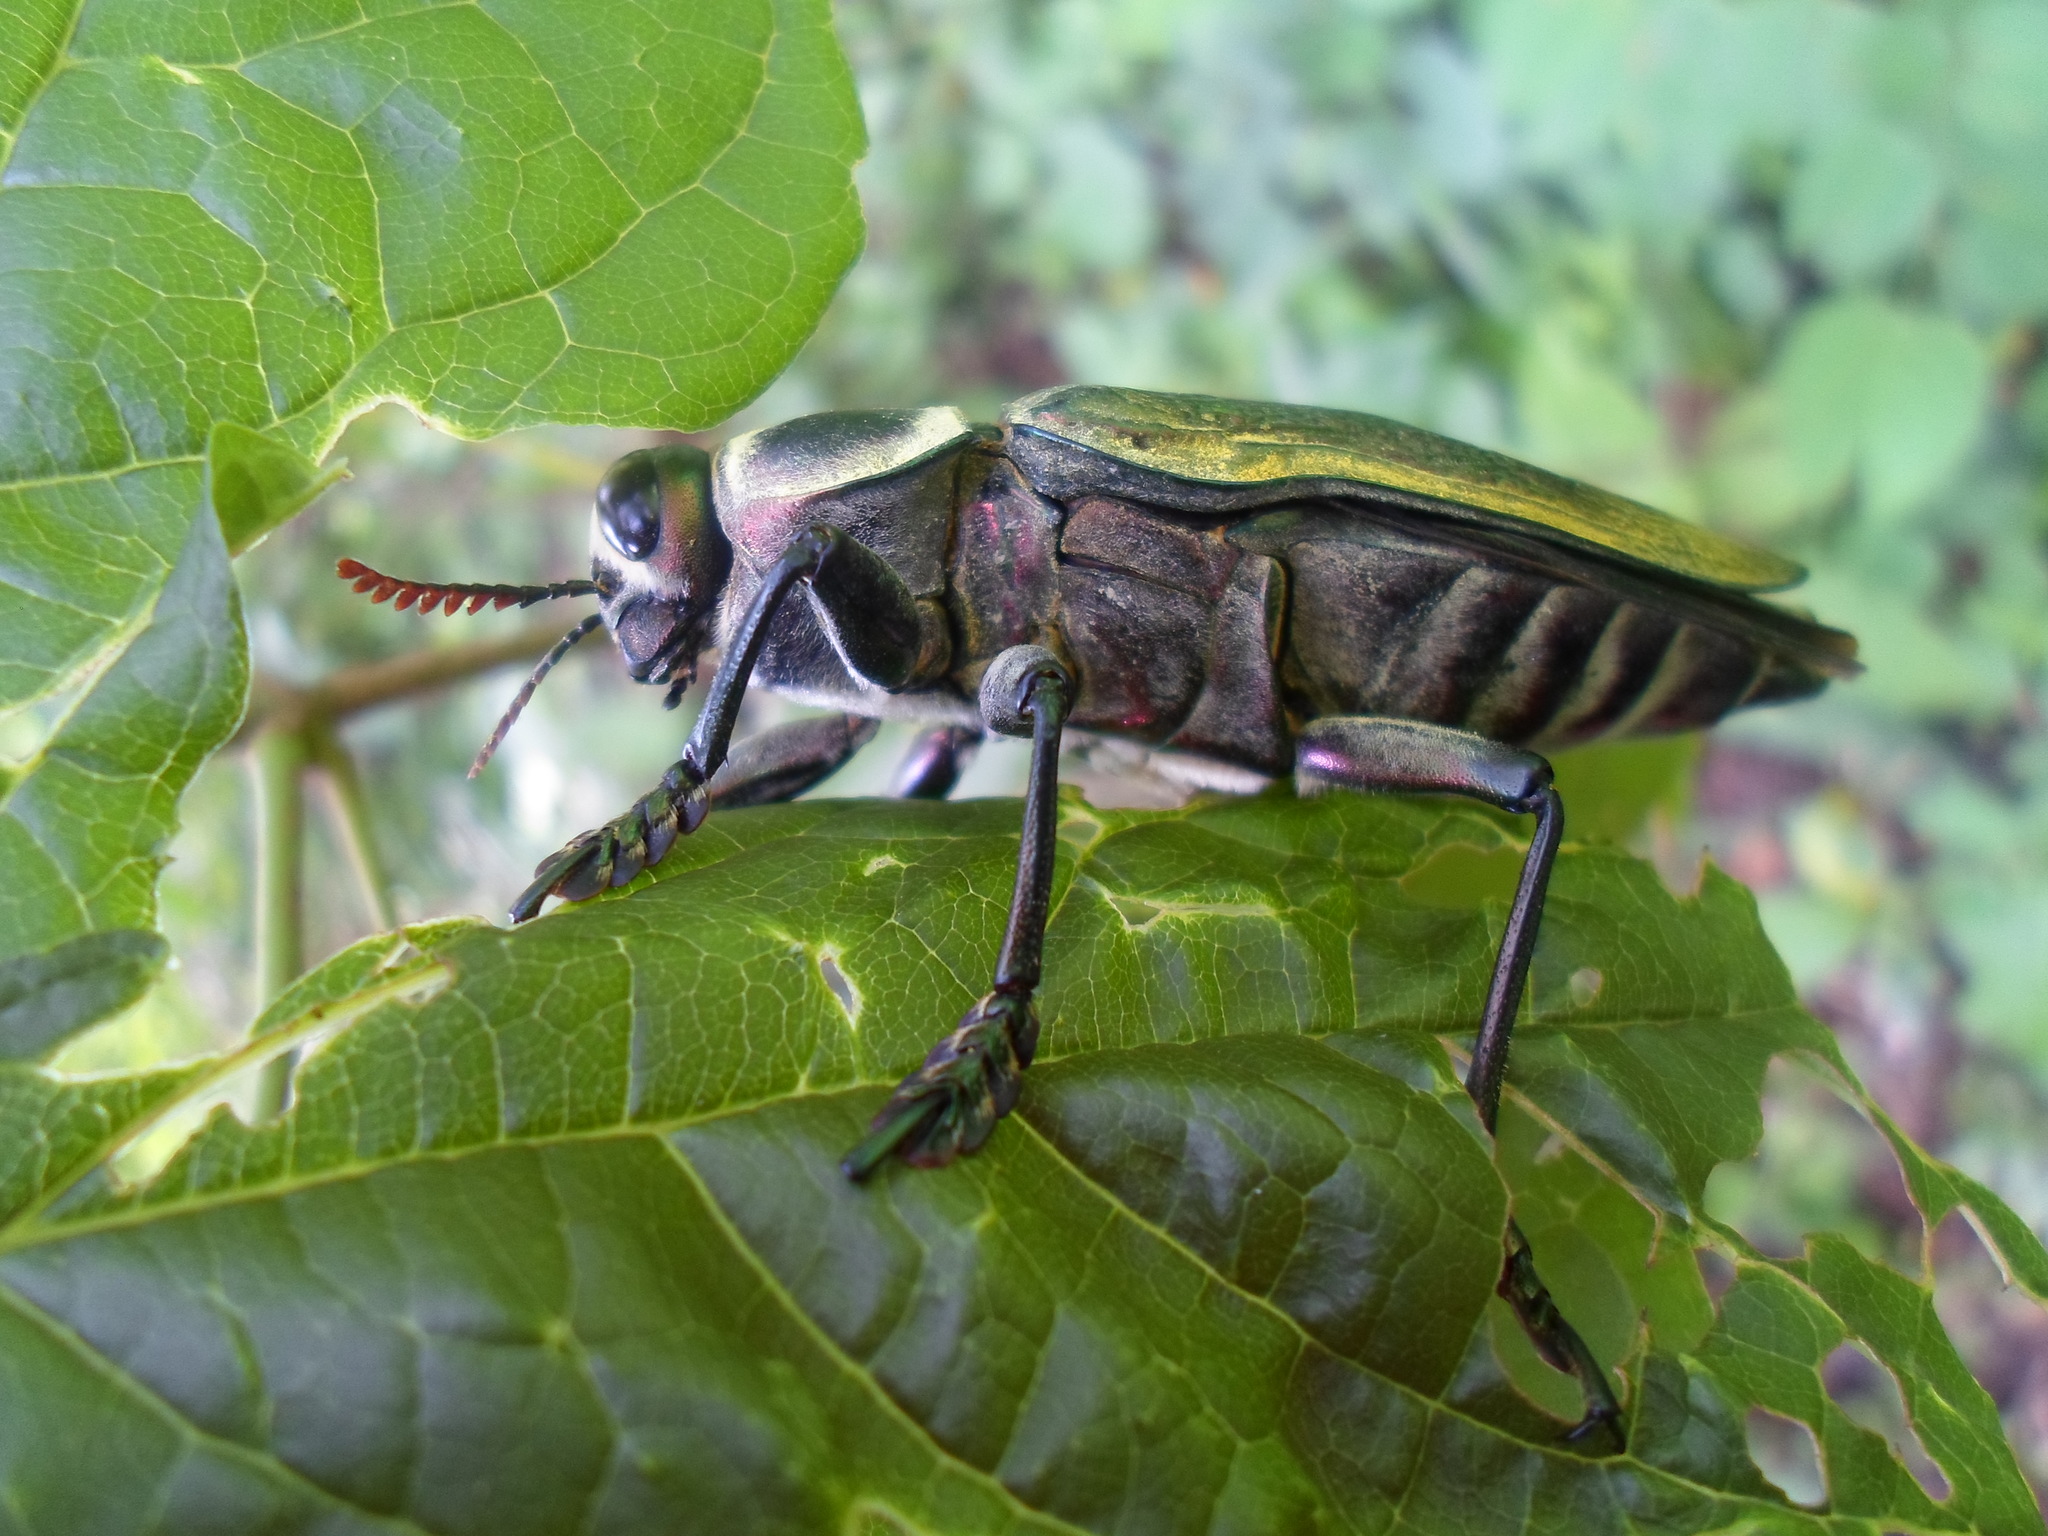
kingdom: Animalia
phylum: Arthropoda
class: Insecta
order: Coleoptera
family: Buprestidae
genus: Euchroma
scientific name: Euchroma giganteum
